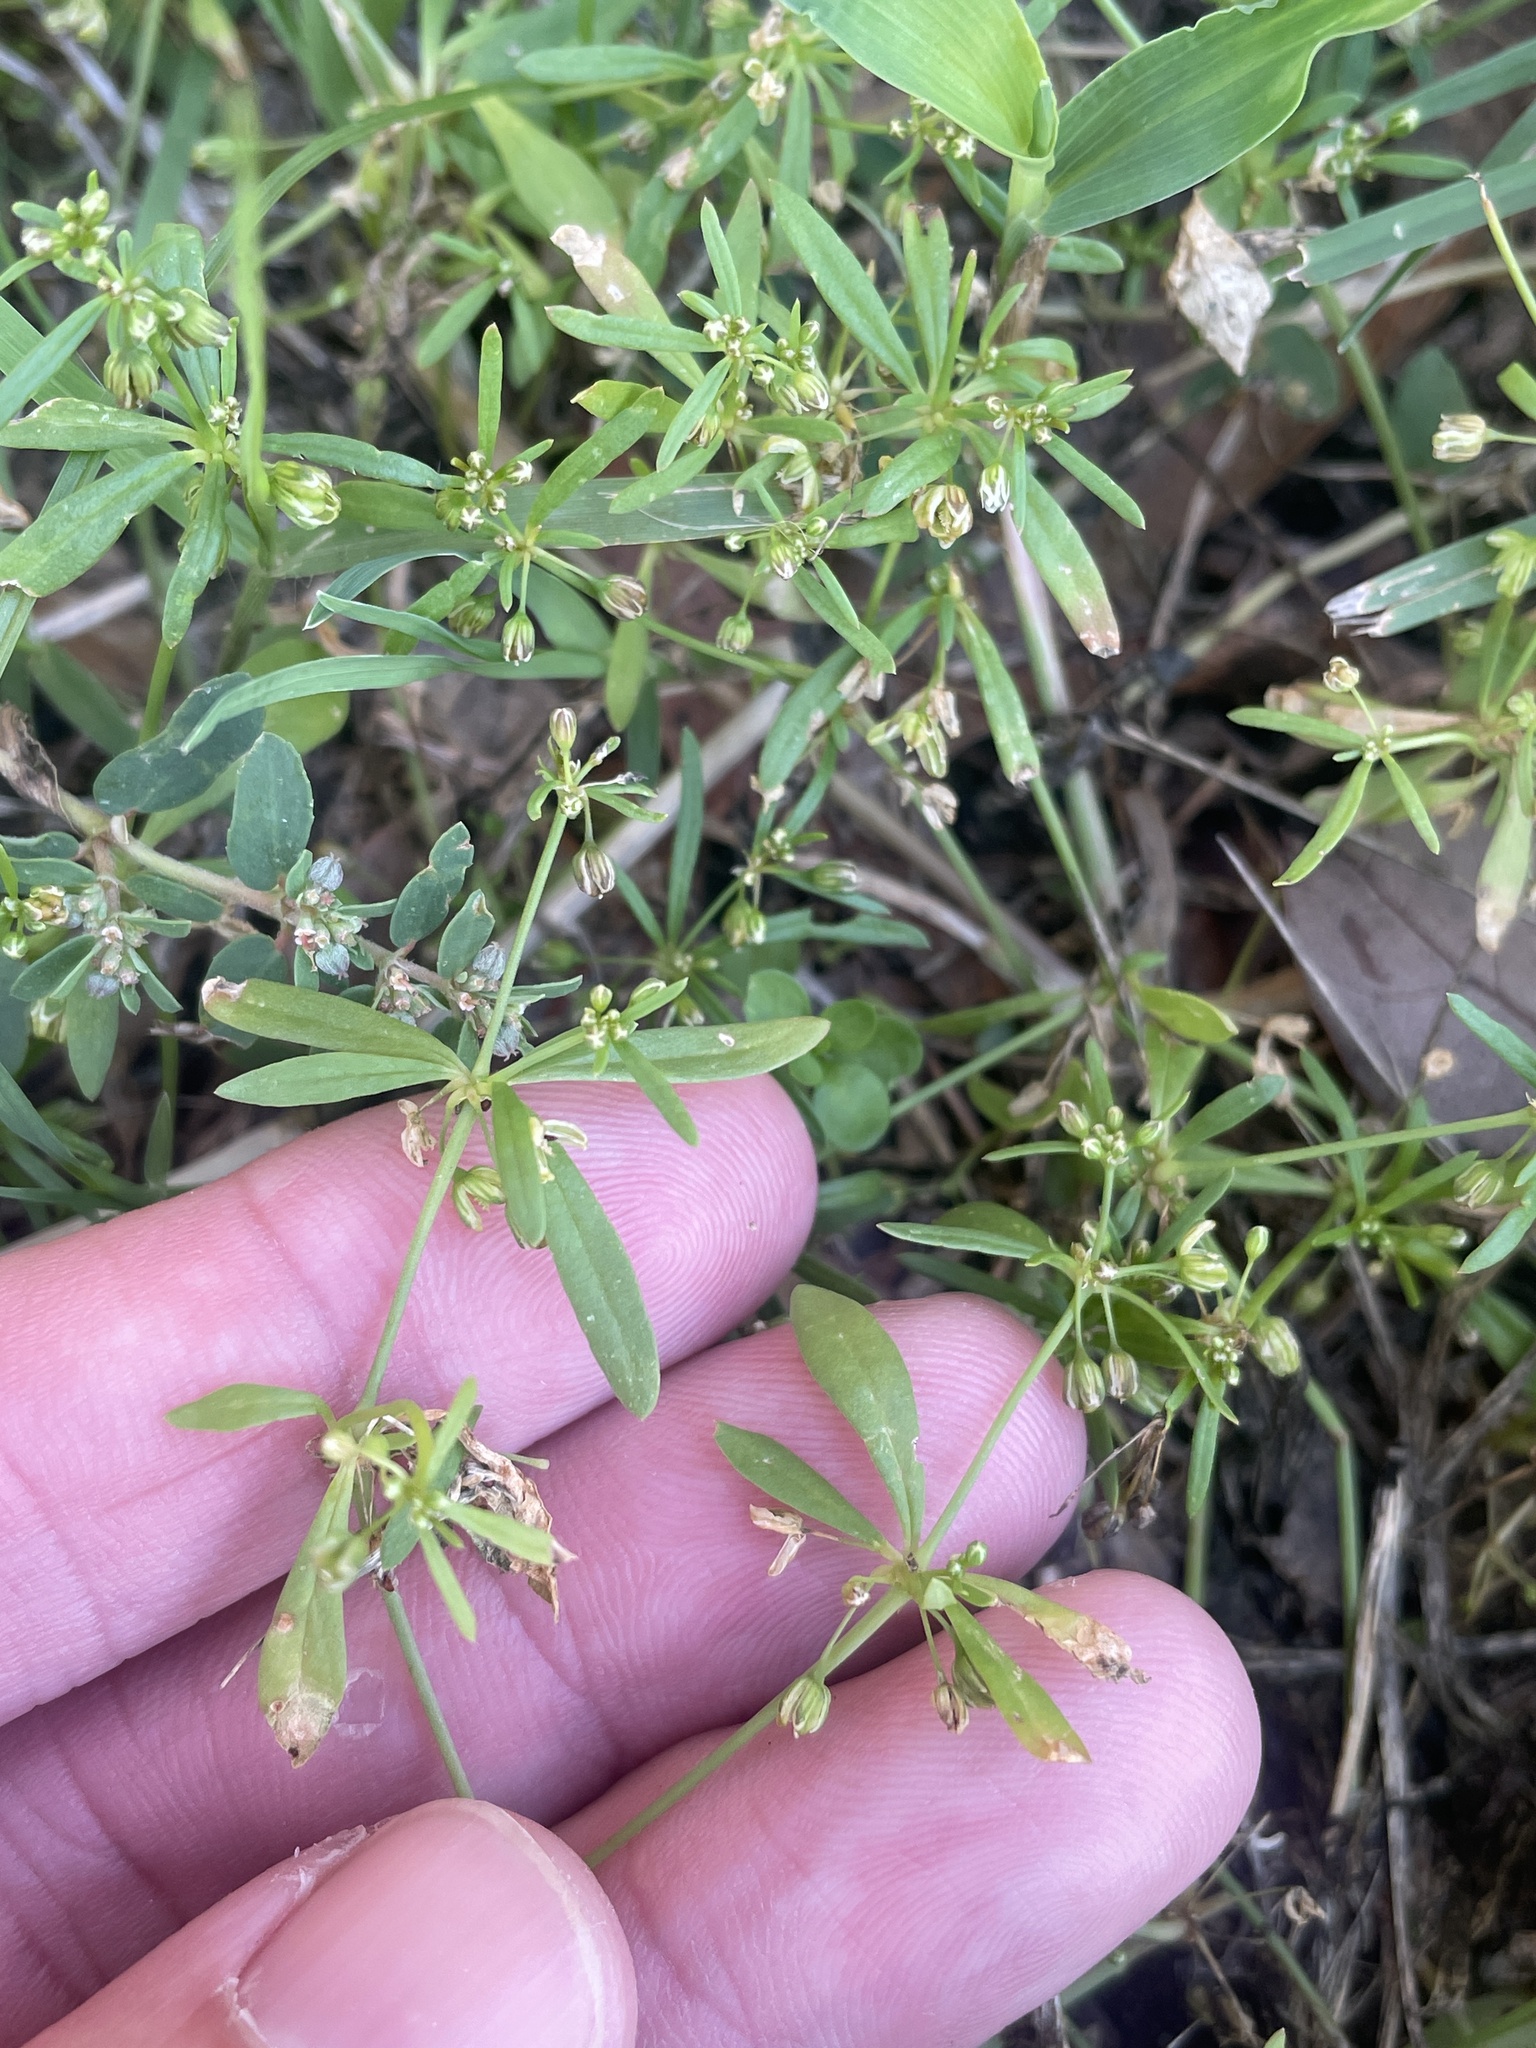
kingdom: Plantae
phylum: Tracheophyta
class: Magnoliopsida
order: Caryophyllales
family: Molluginaceae
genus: Mollugo
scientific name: Mollugo verticillata
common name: Green carpetweed
